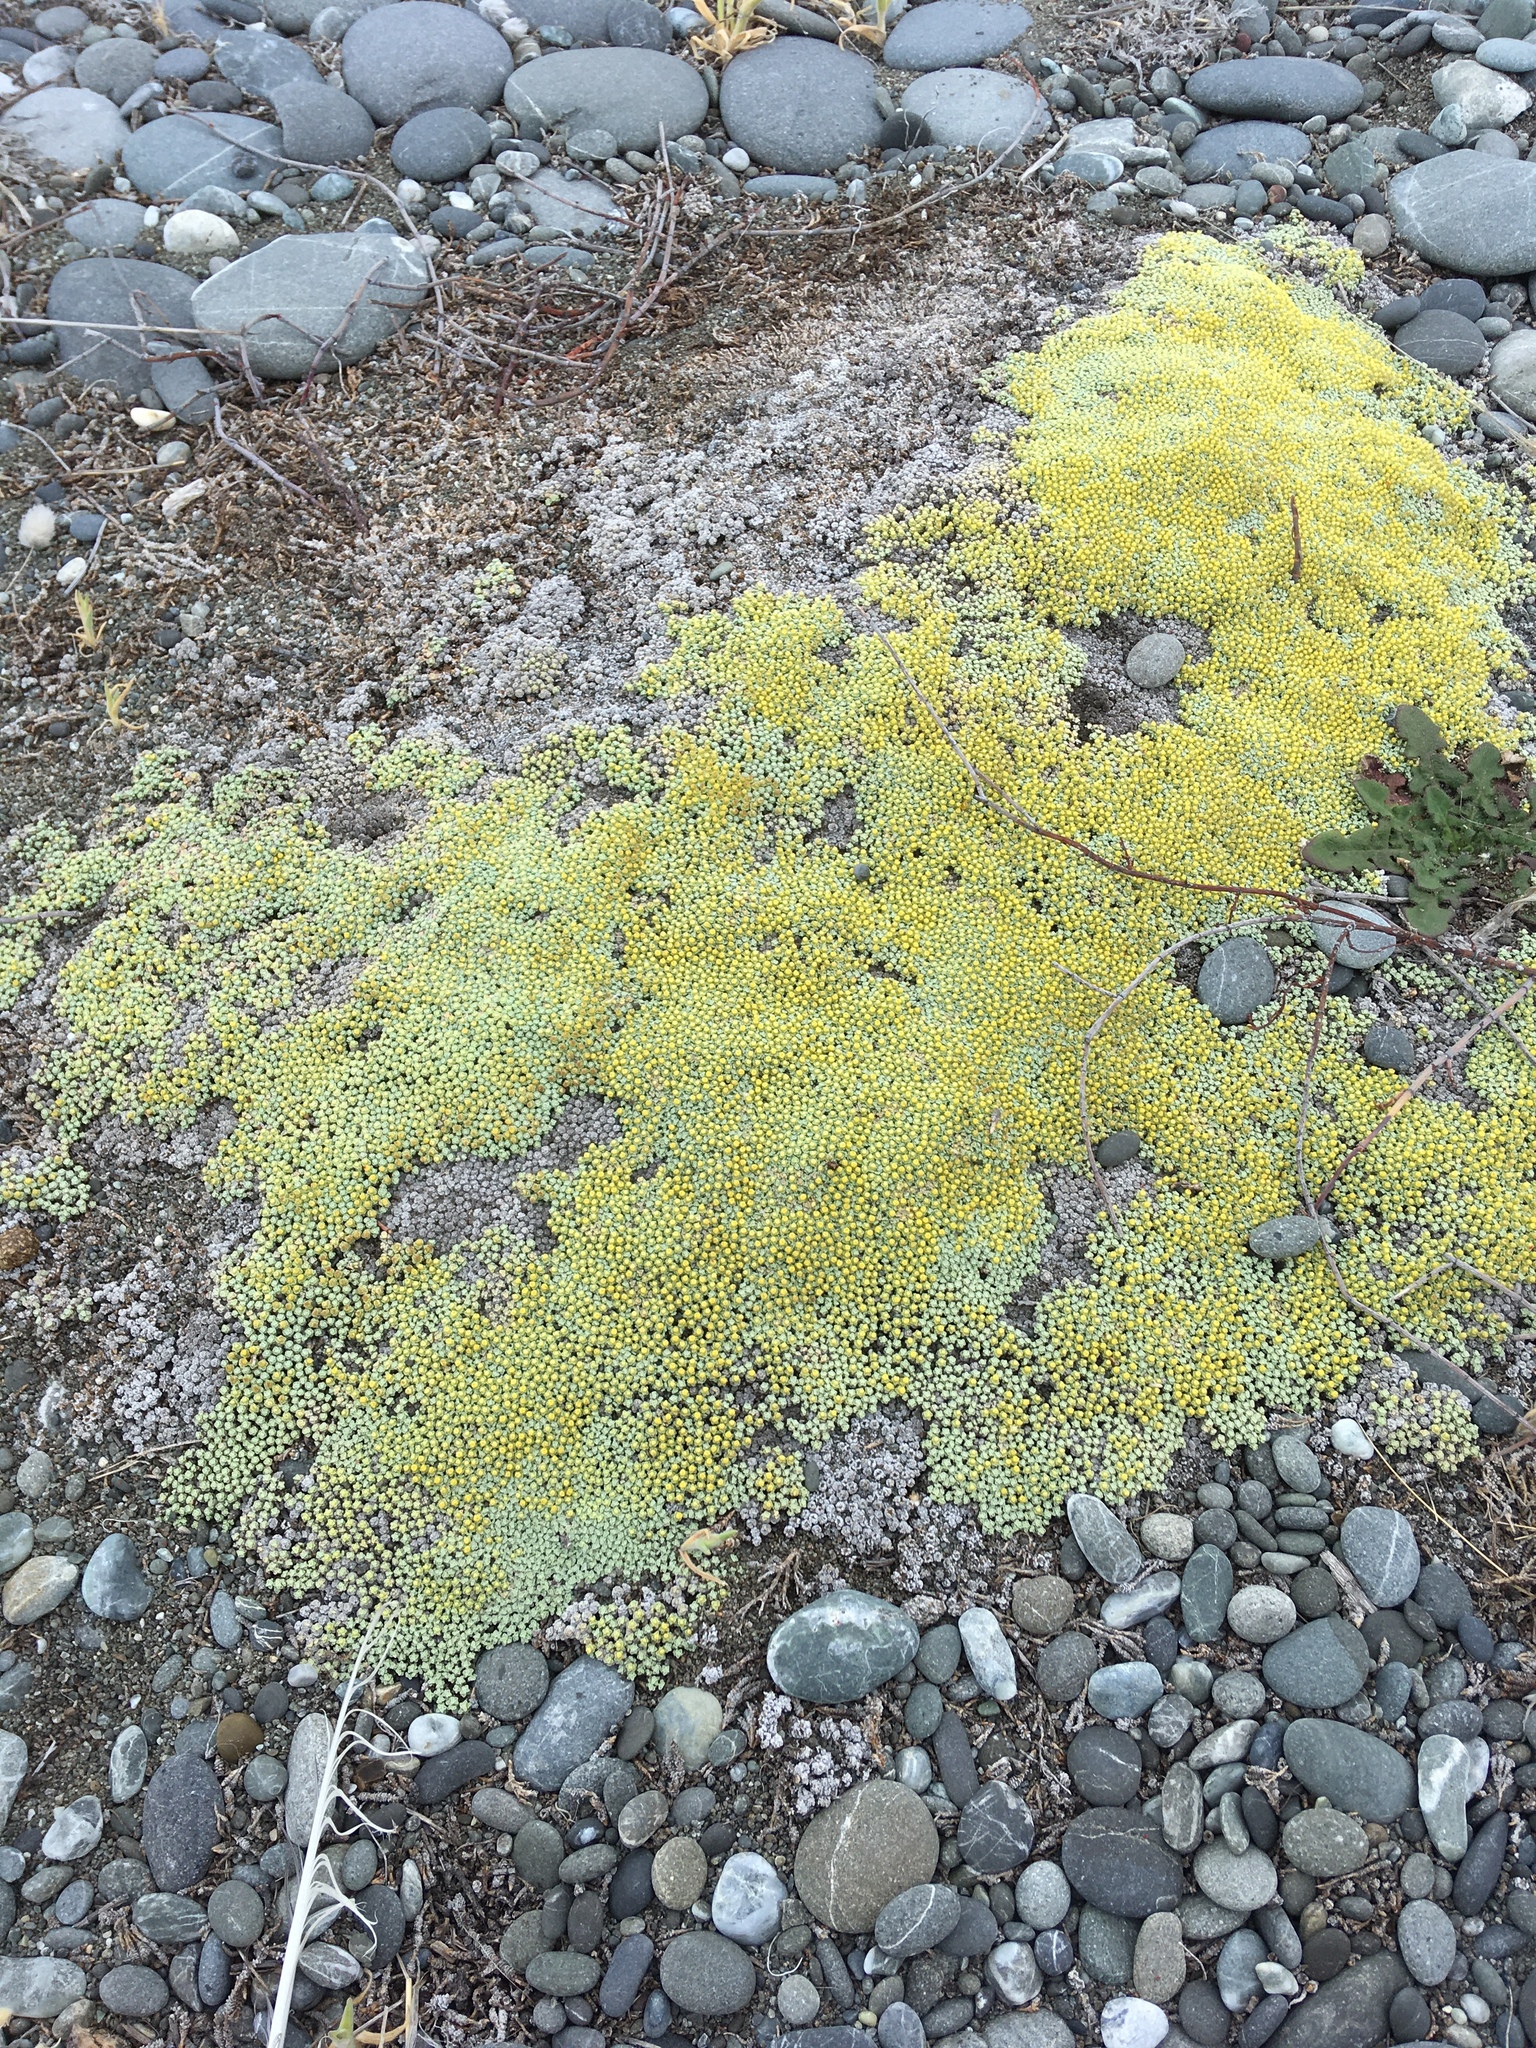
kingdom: Plantae
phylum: Tracheophyta
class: Magnoliopsida
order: Asterales
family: Asteraceae
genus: Raoulia
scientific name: Raoulia australis
